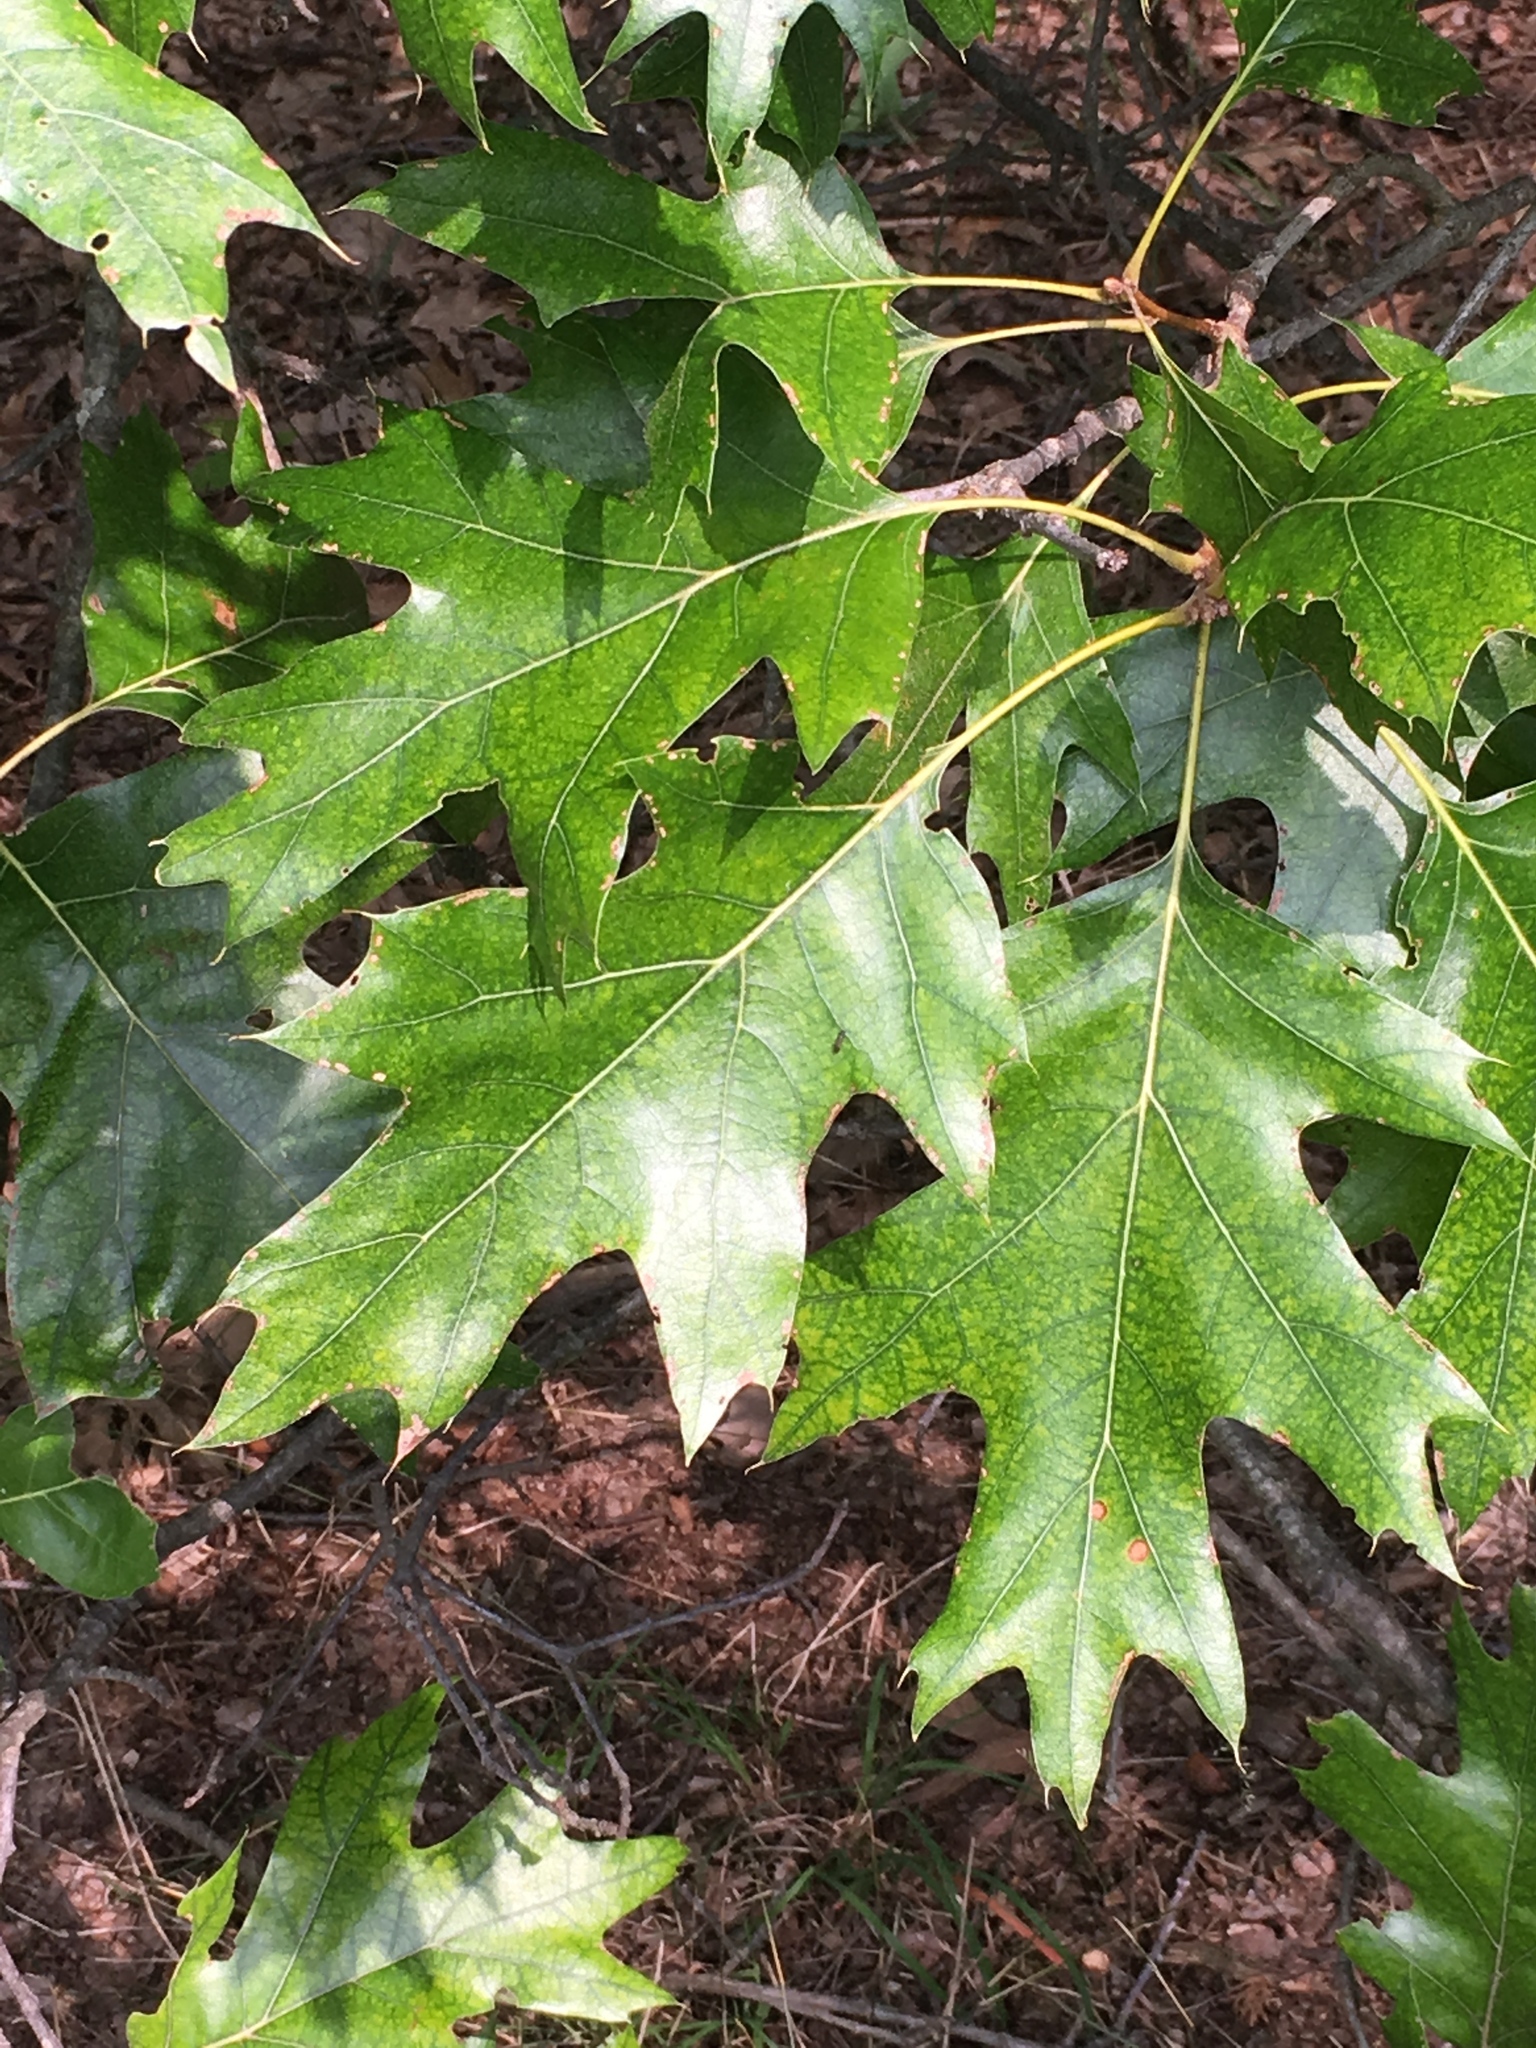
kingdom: Plantae
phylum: Tracheophyta
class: Magnoliopsida
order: Fagales
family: Fagaceae
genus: Quercus
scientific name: Quercus rubra
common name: Red oak
